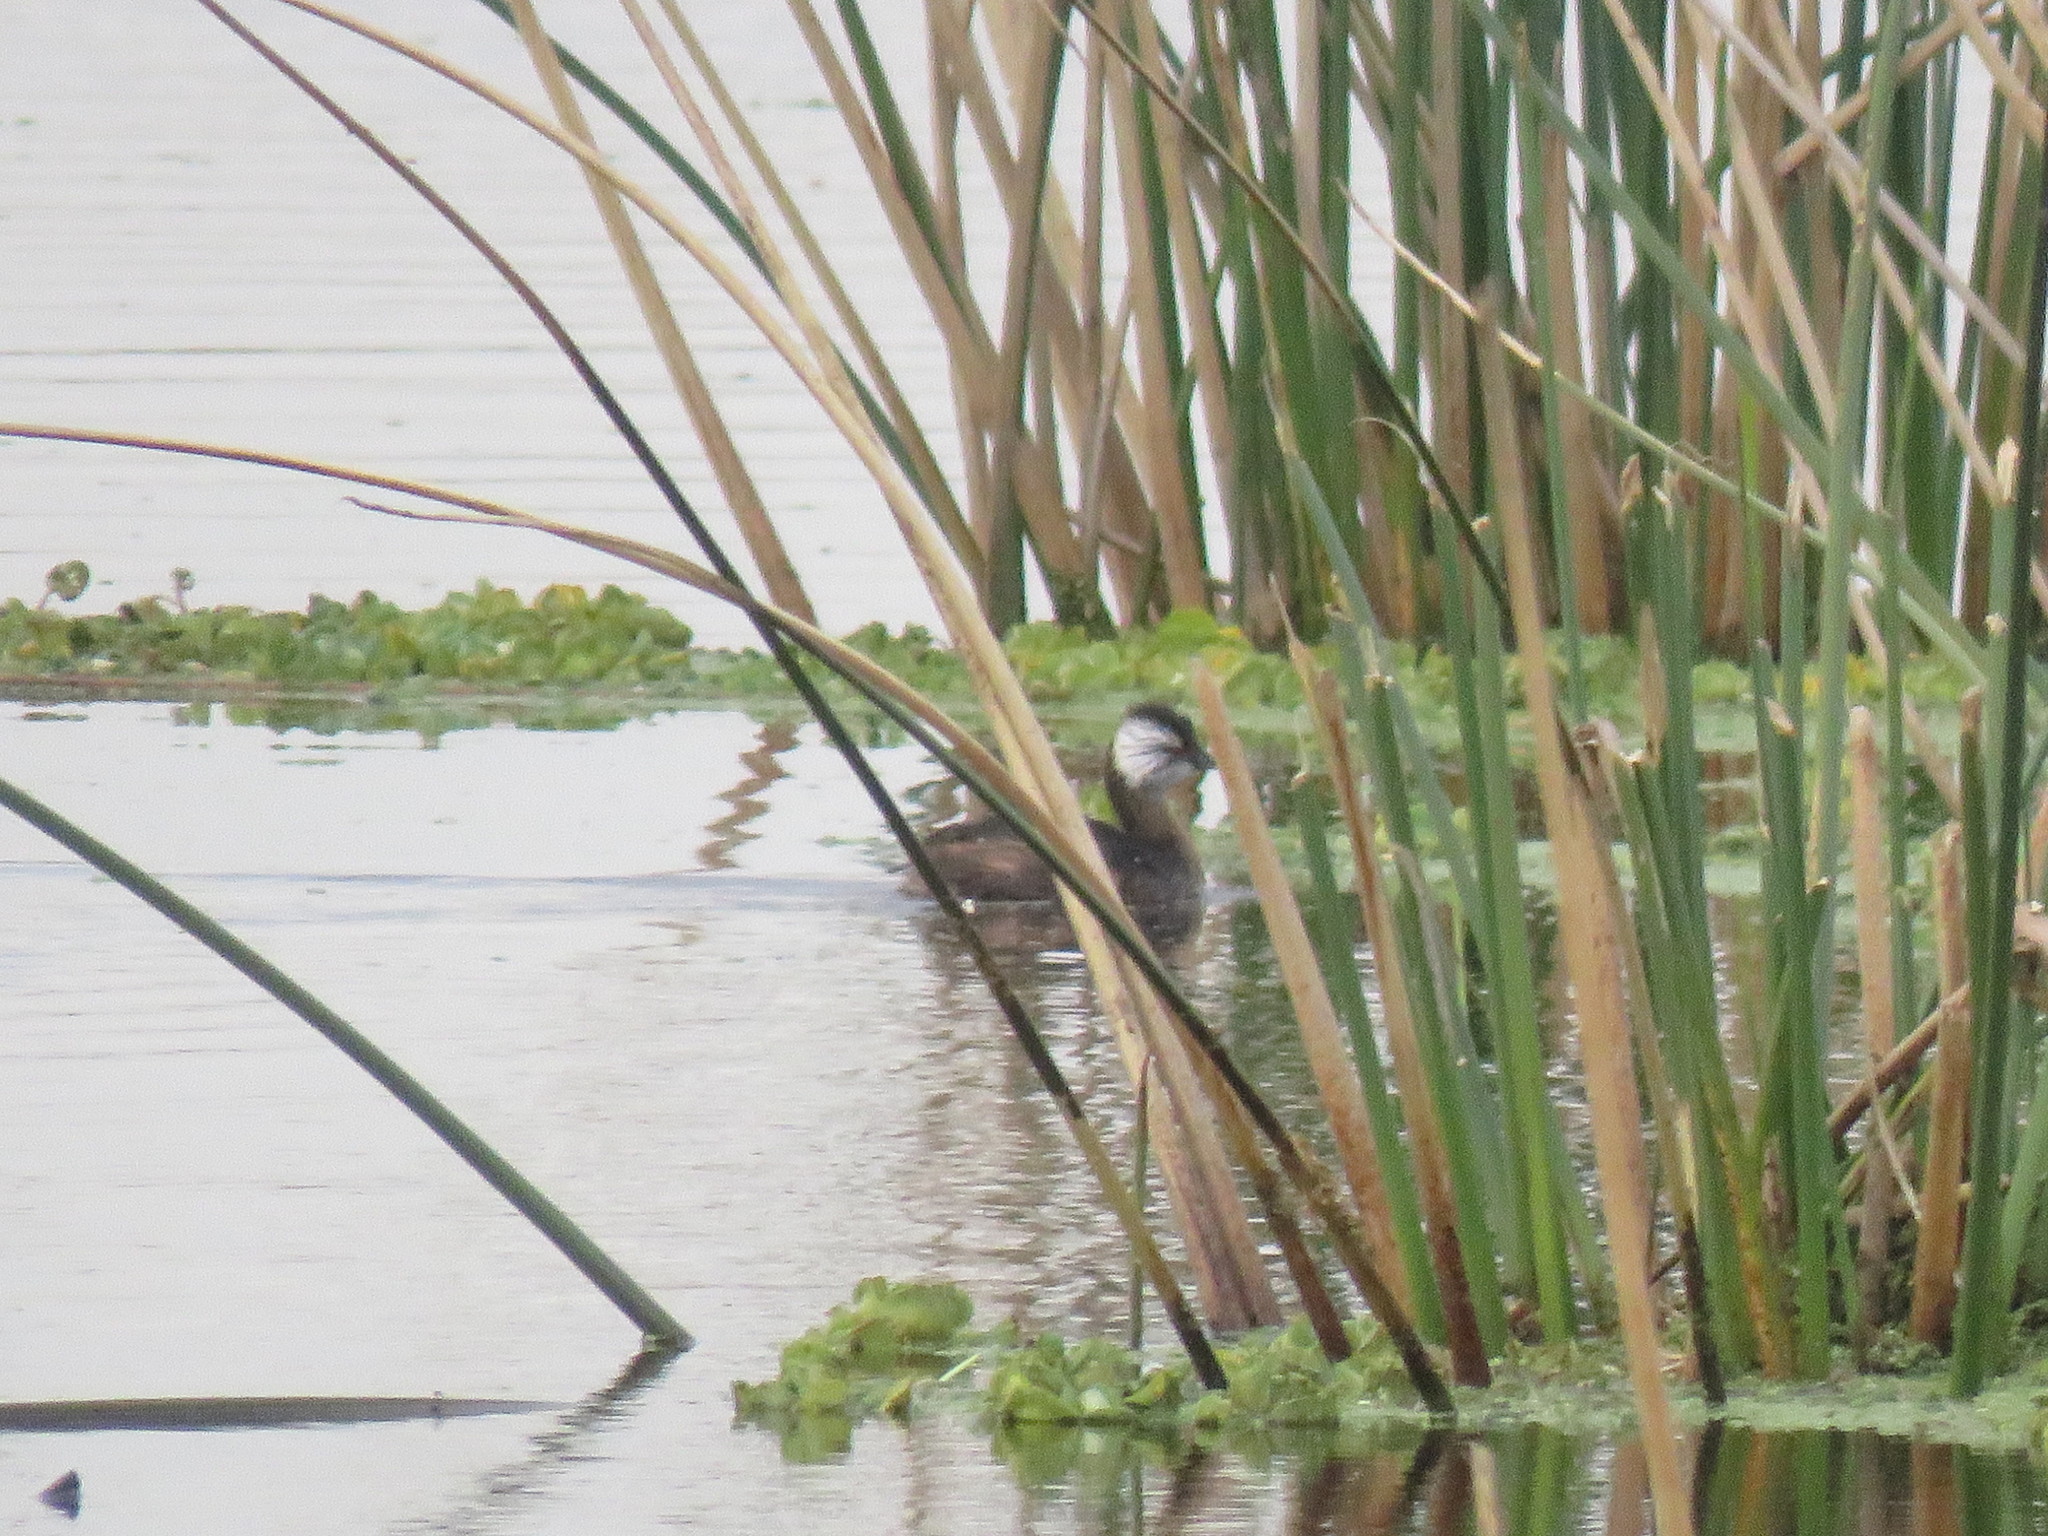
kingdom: Animalia
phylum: Chordata
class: Aves
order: Podicipediformes
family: Podicipedidae
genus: Rollandia
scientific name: Rollandia rolland
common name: White-tufted grebe
